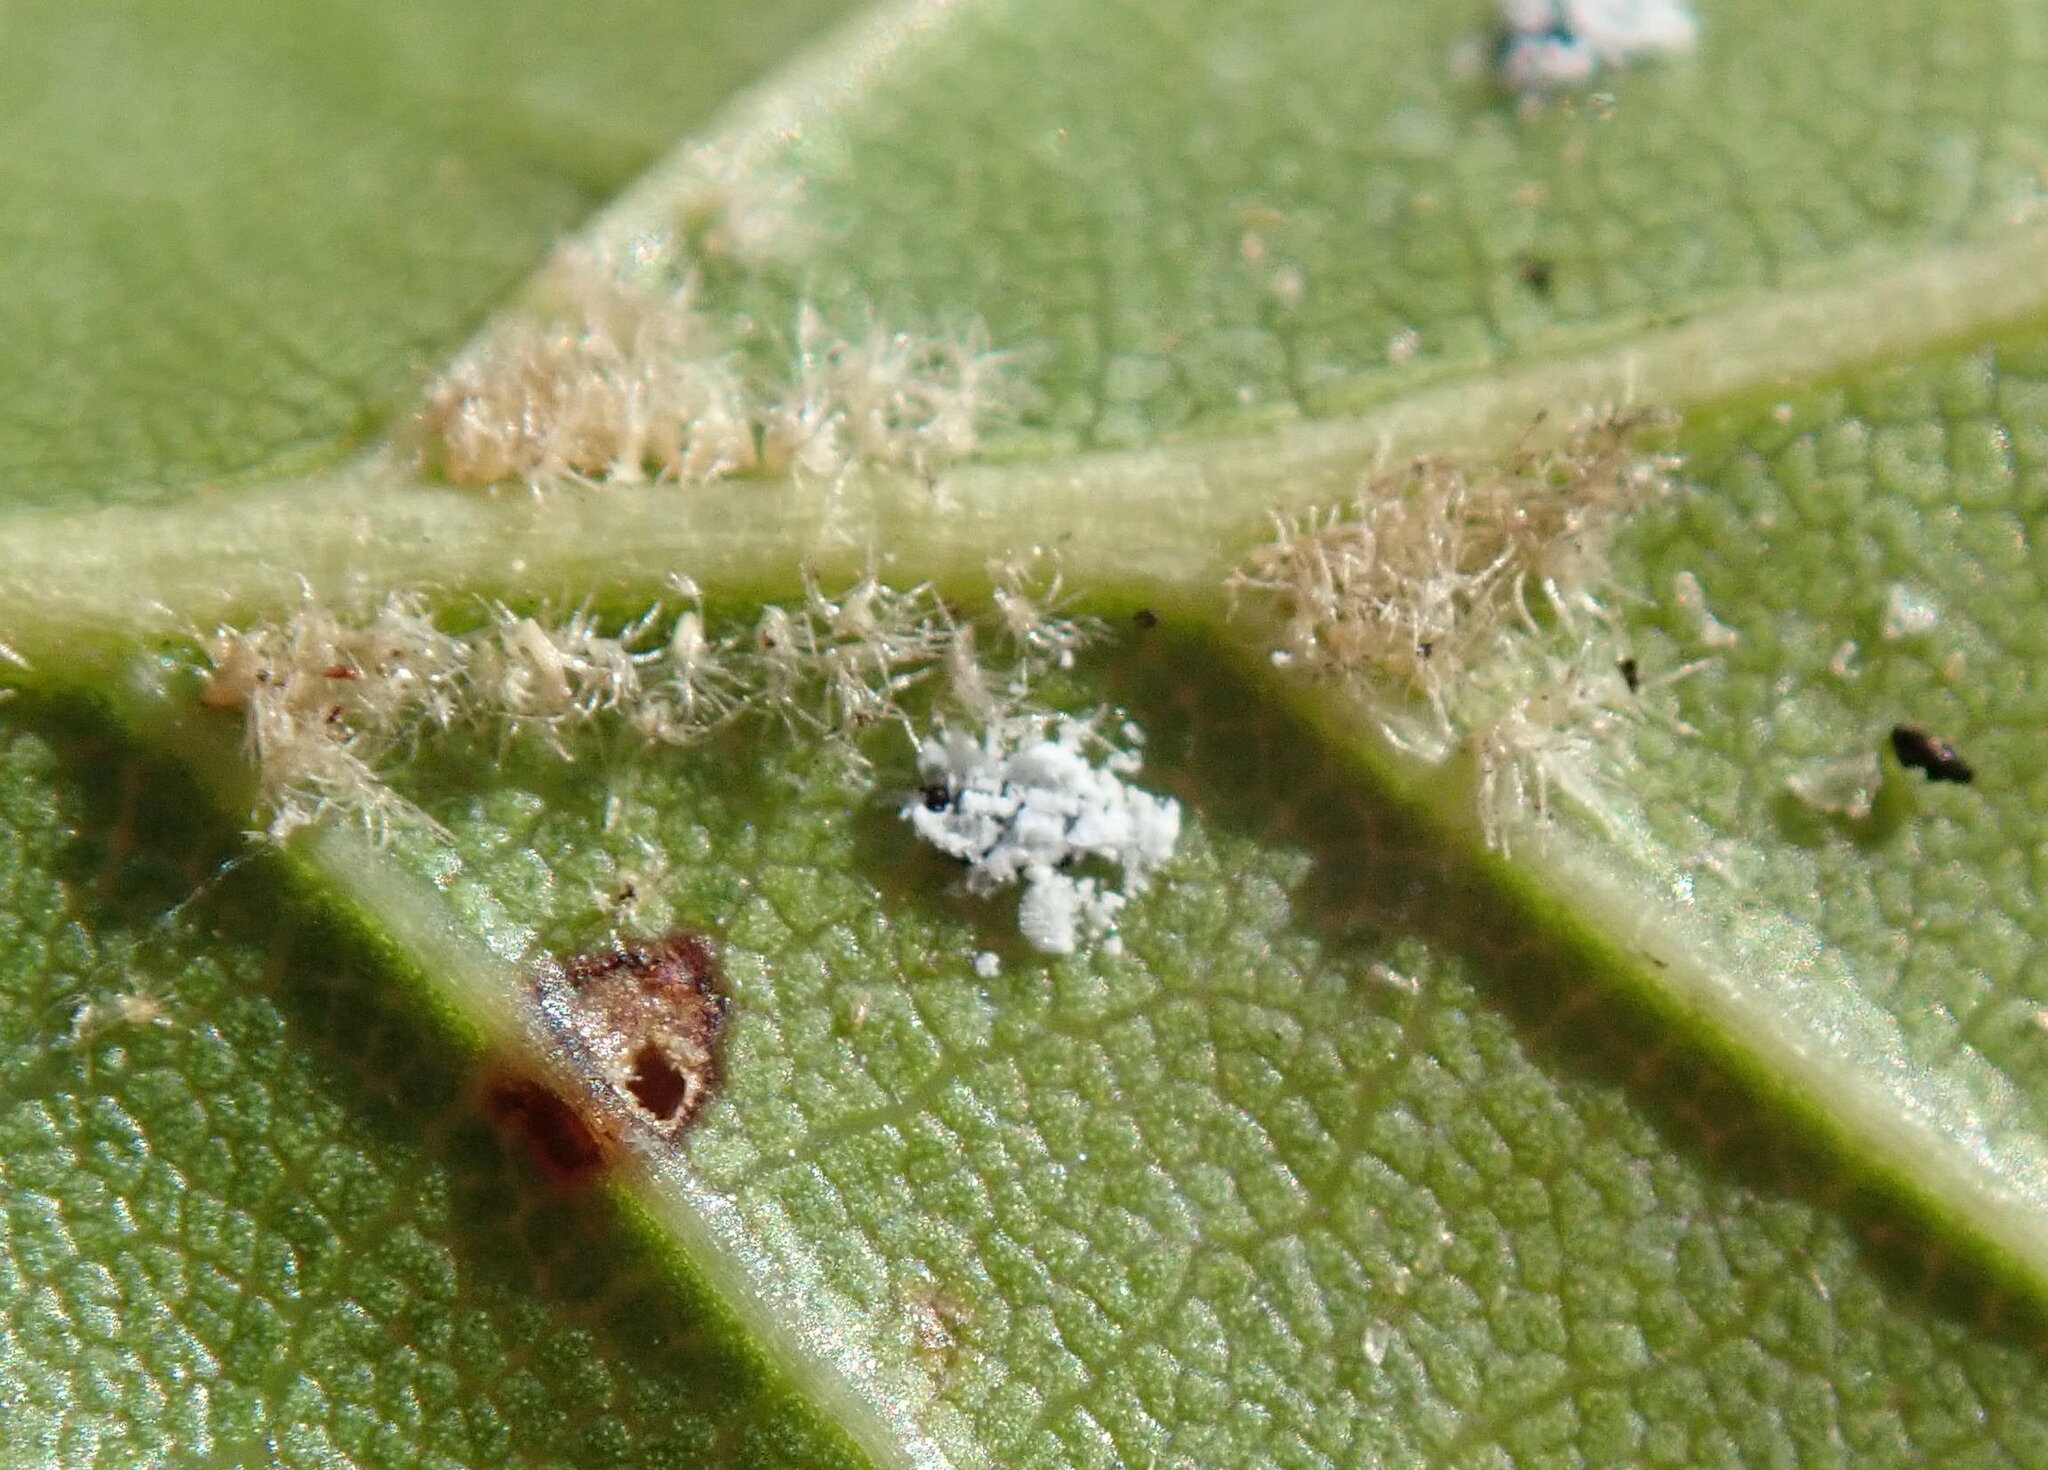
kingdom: Animalia
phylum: Arthropoda
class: Insecta
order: Hemiptera
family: Aleyrodidae
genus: Aleuroplatus
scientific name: Aleuroplatus coronata
